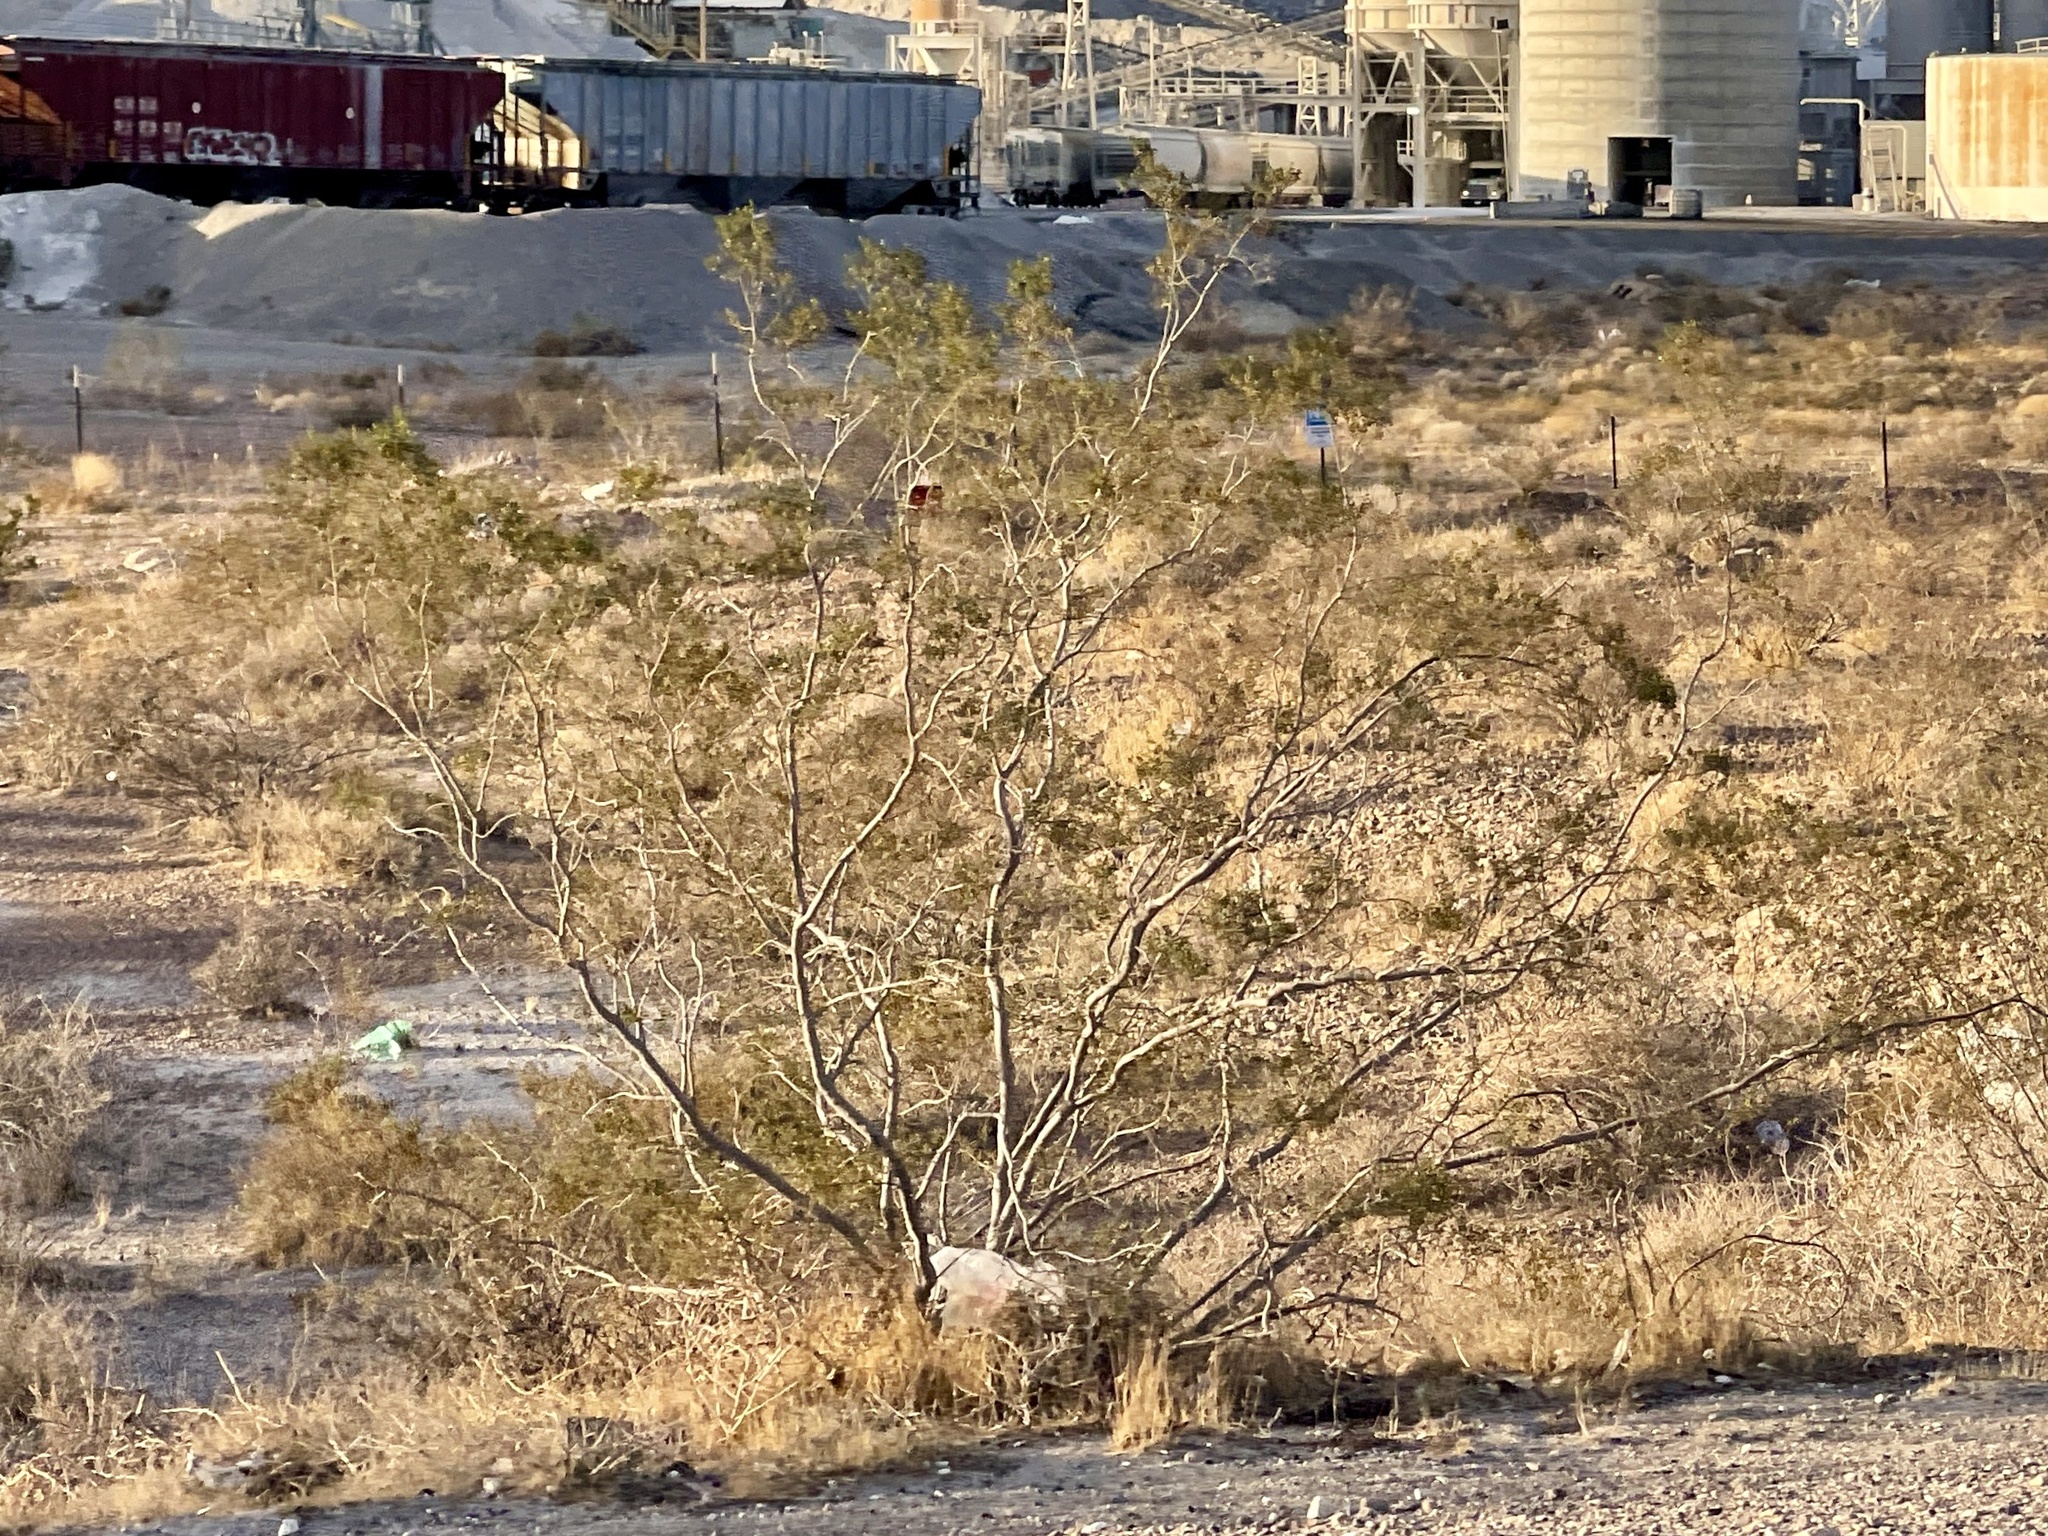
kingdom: Plantae
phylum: Tracheophyta
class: Magnoliopsida
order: Zygophyllales
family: Zygophyllaceae
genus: Larrea
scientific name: Larrea tridentata
